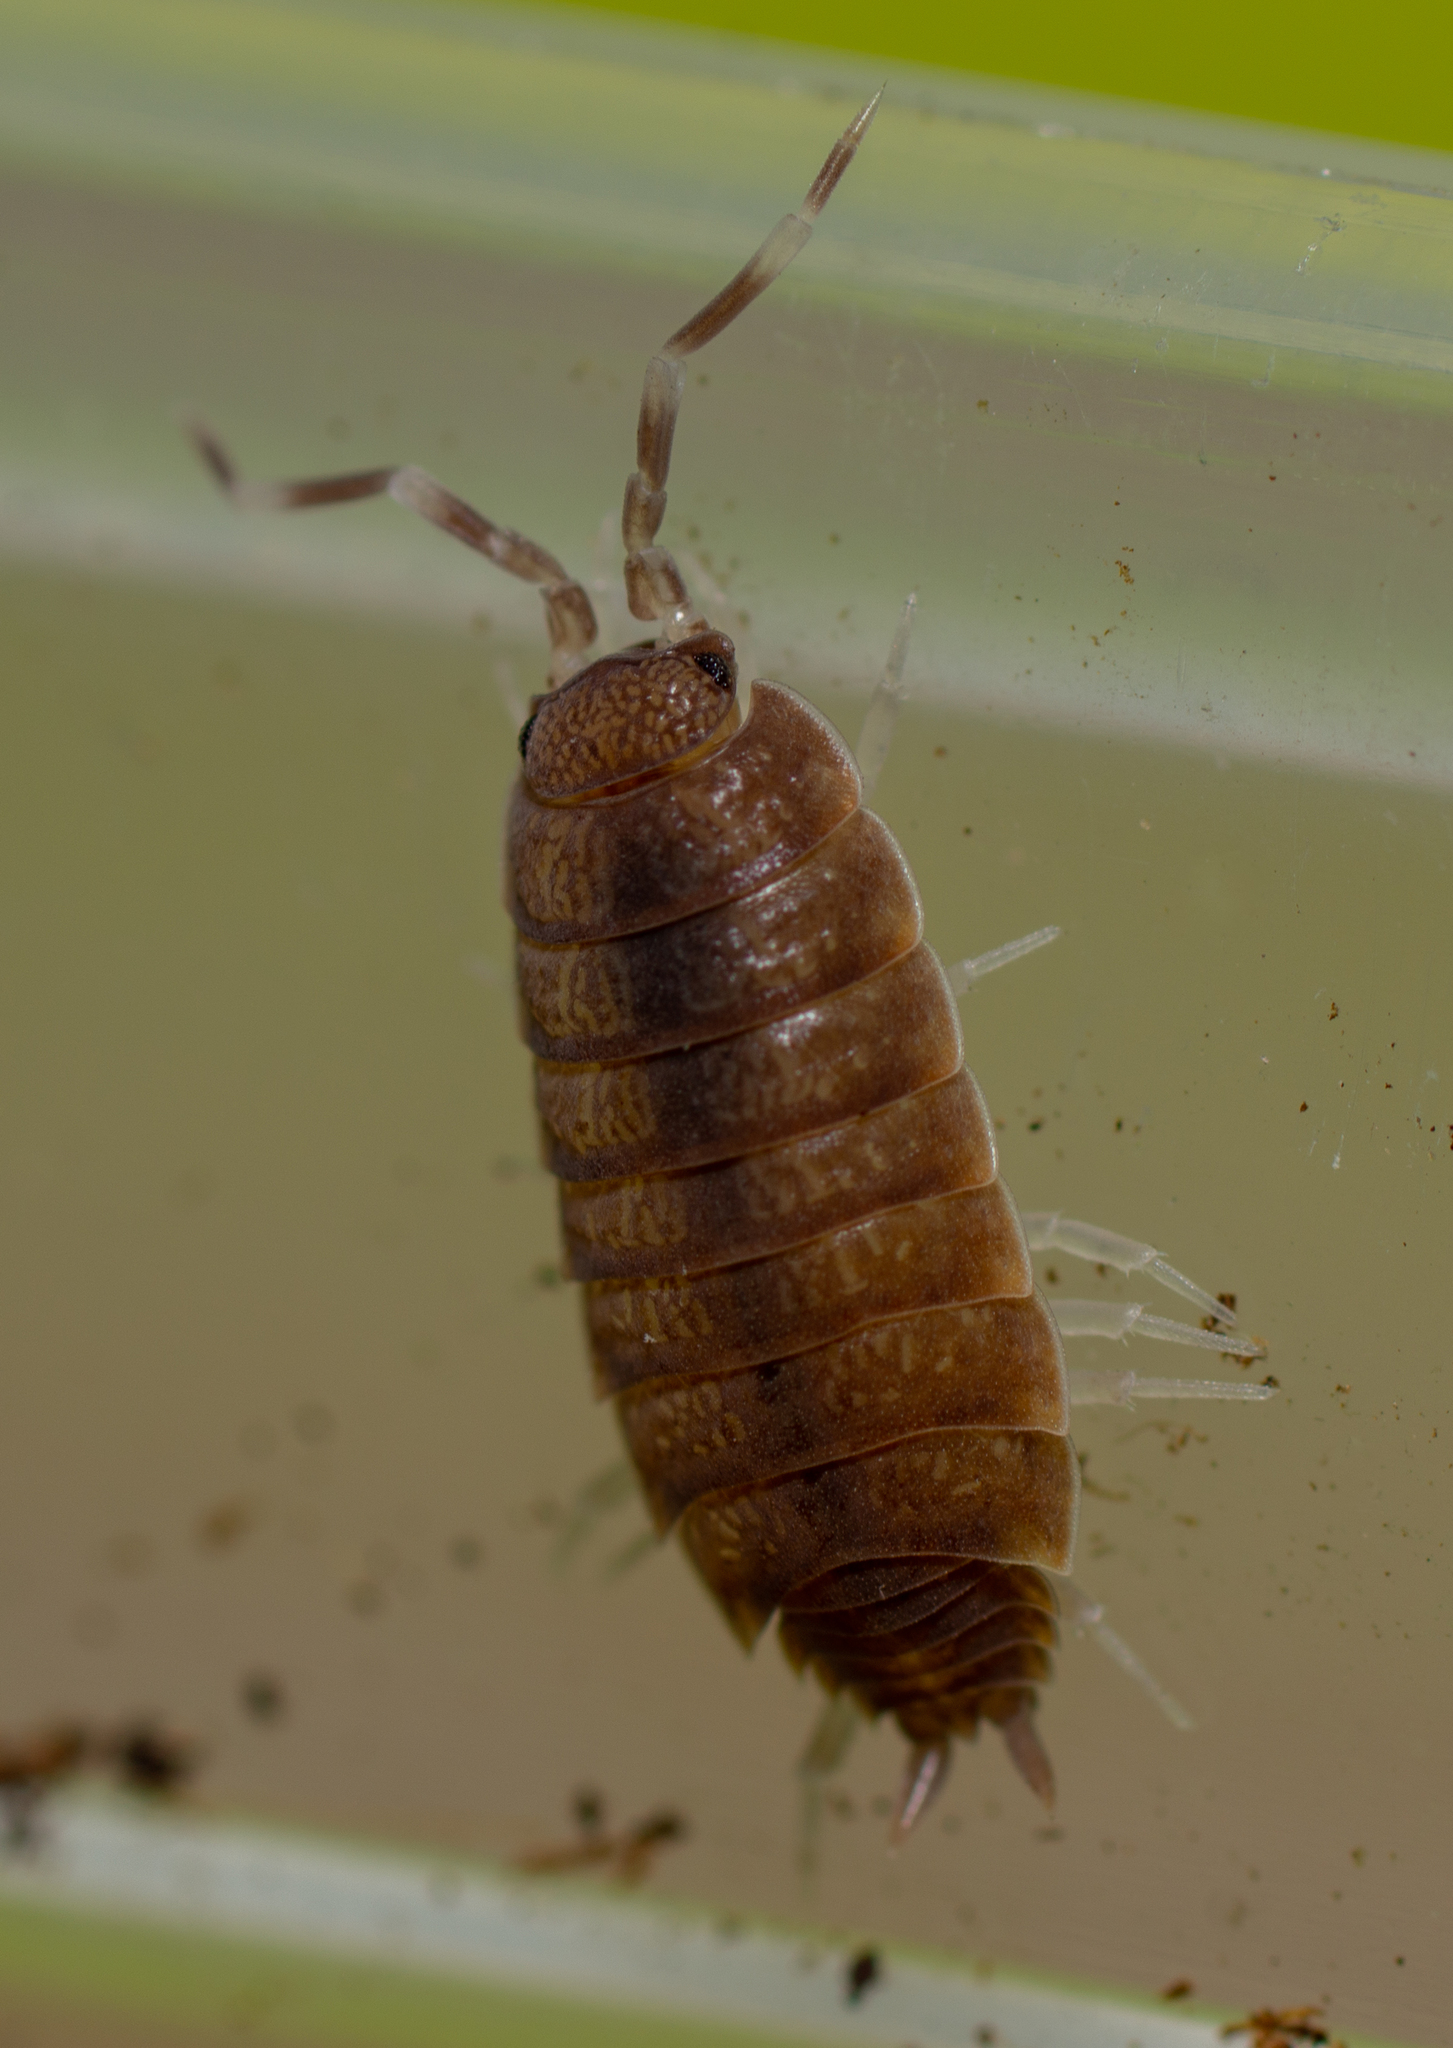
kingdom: Animalia
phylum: Arthropoda
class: Malacostraca
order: Isopoda
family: Porcellionidae
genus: Porcellionides
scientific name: Porcellionides pruinosus
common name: Plum woodlouse
